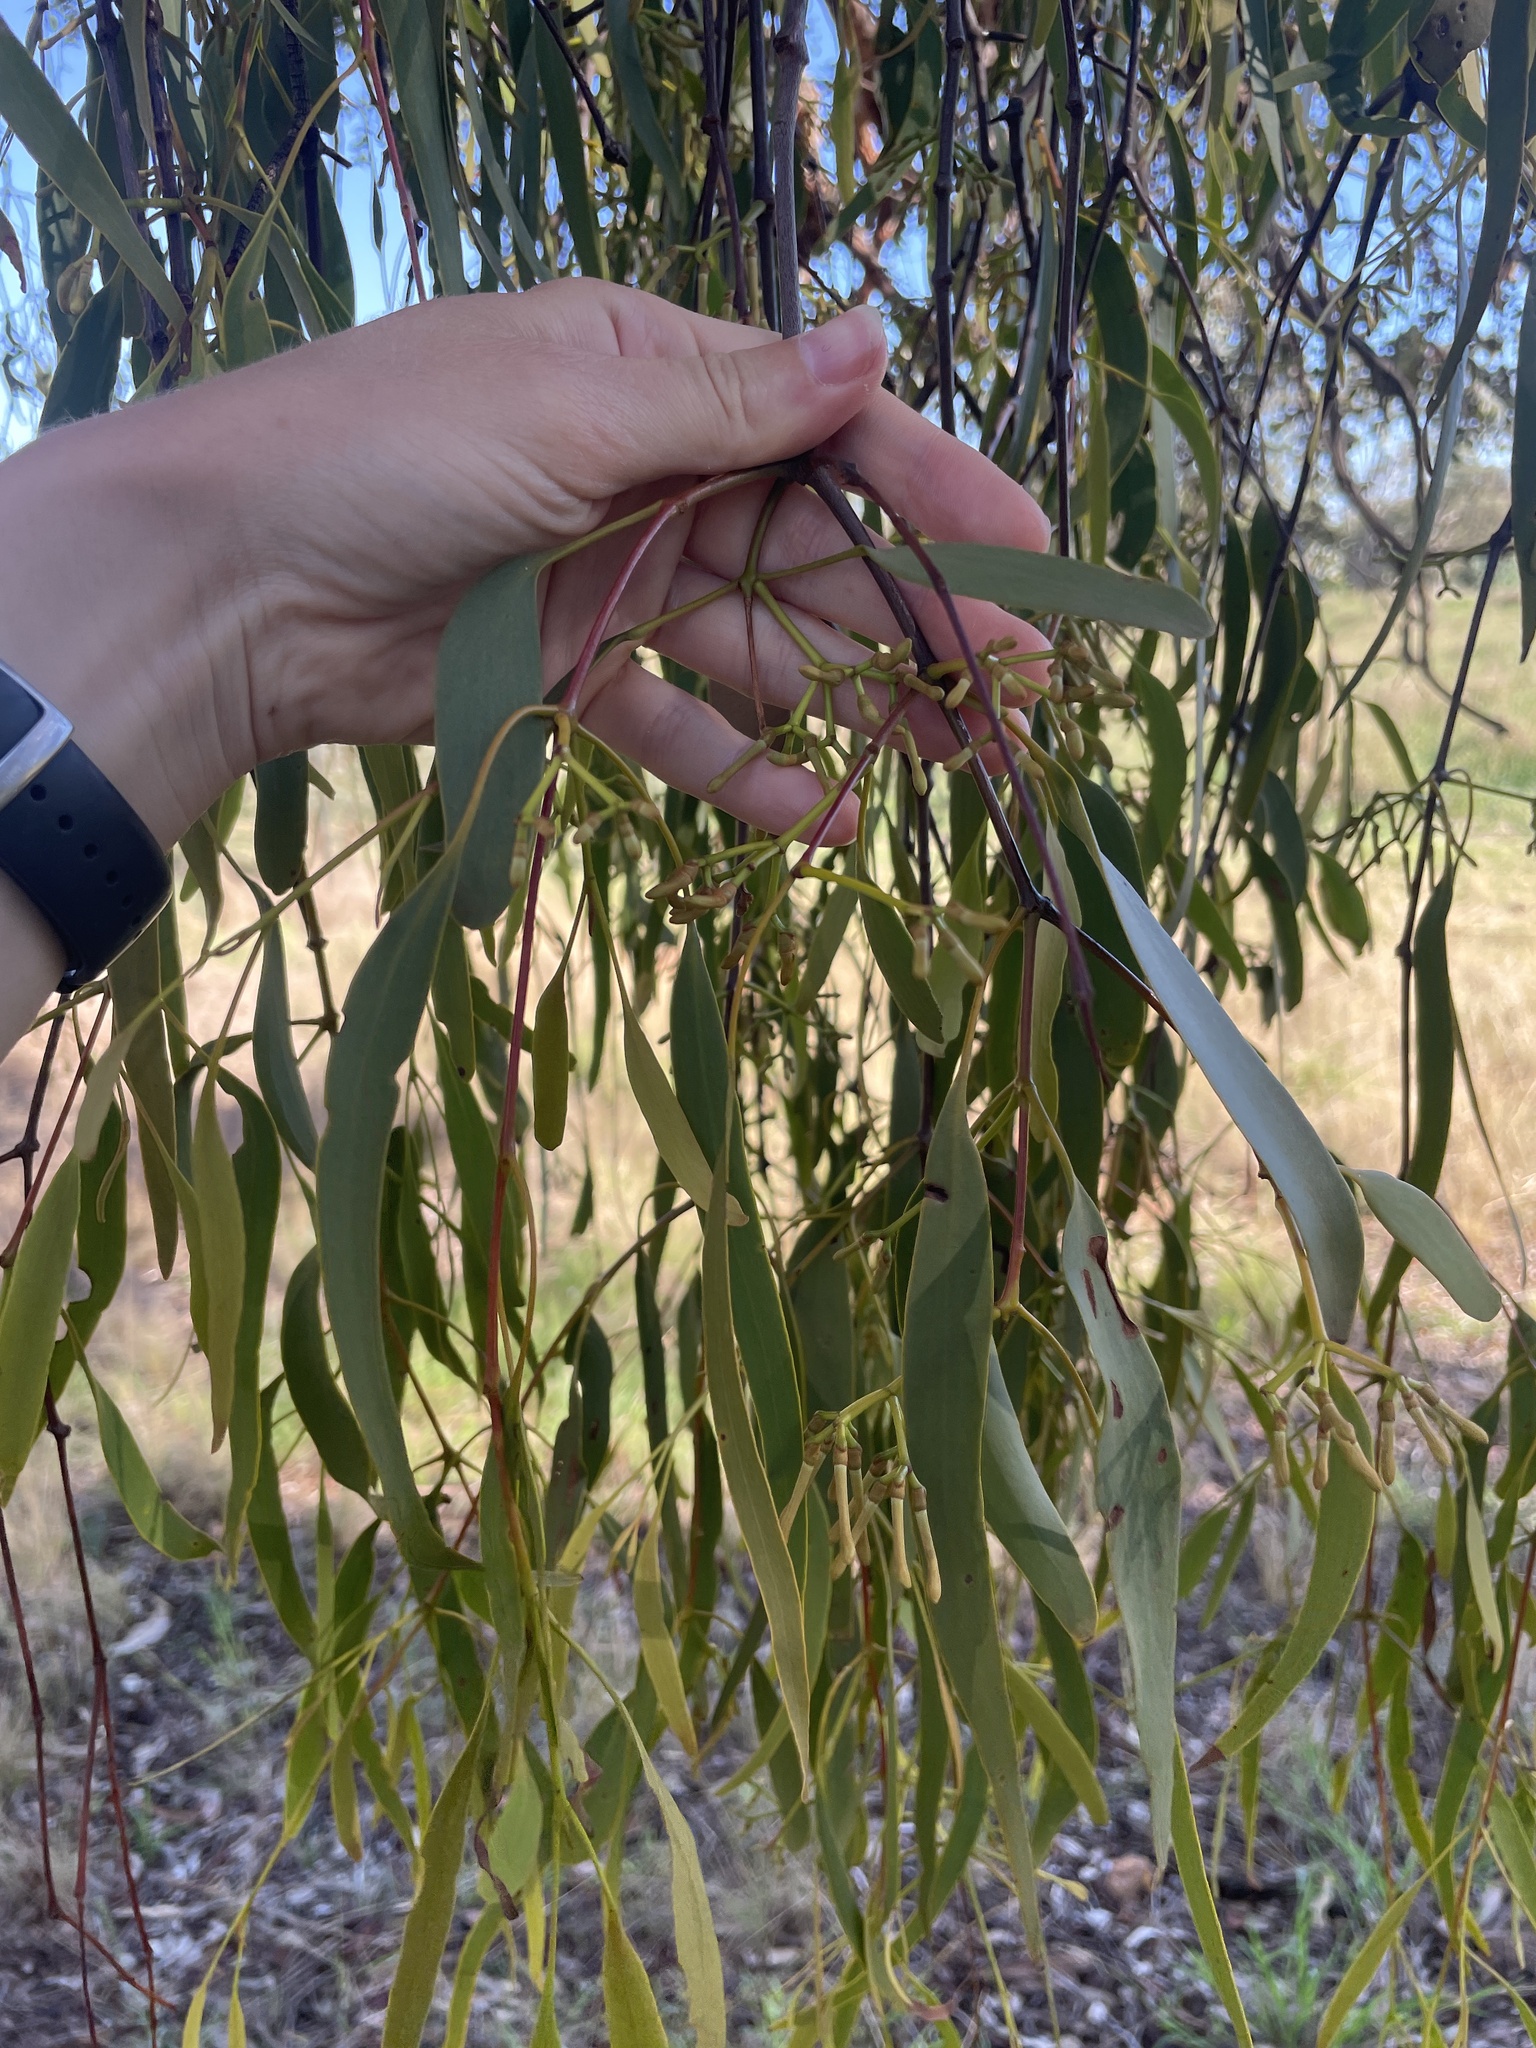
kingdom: Plantae
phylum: Tracheophyta
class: Magnoliopsida
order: Santalales
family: Loranthaceae
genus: Amyema
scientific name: Amyema miquelii
